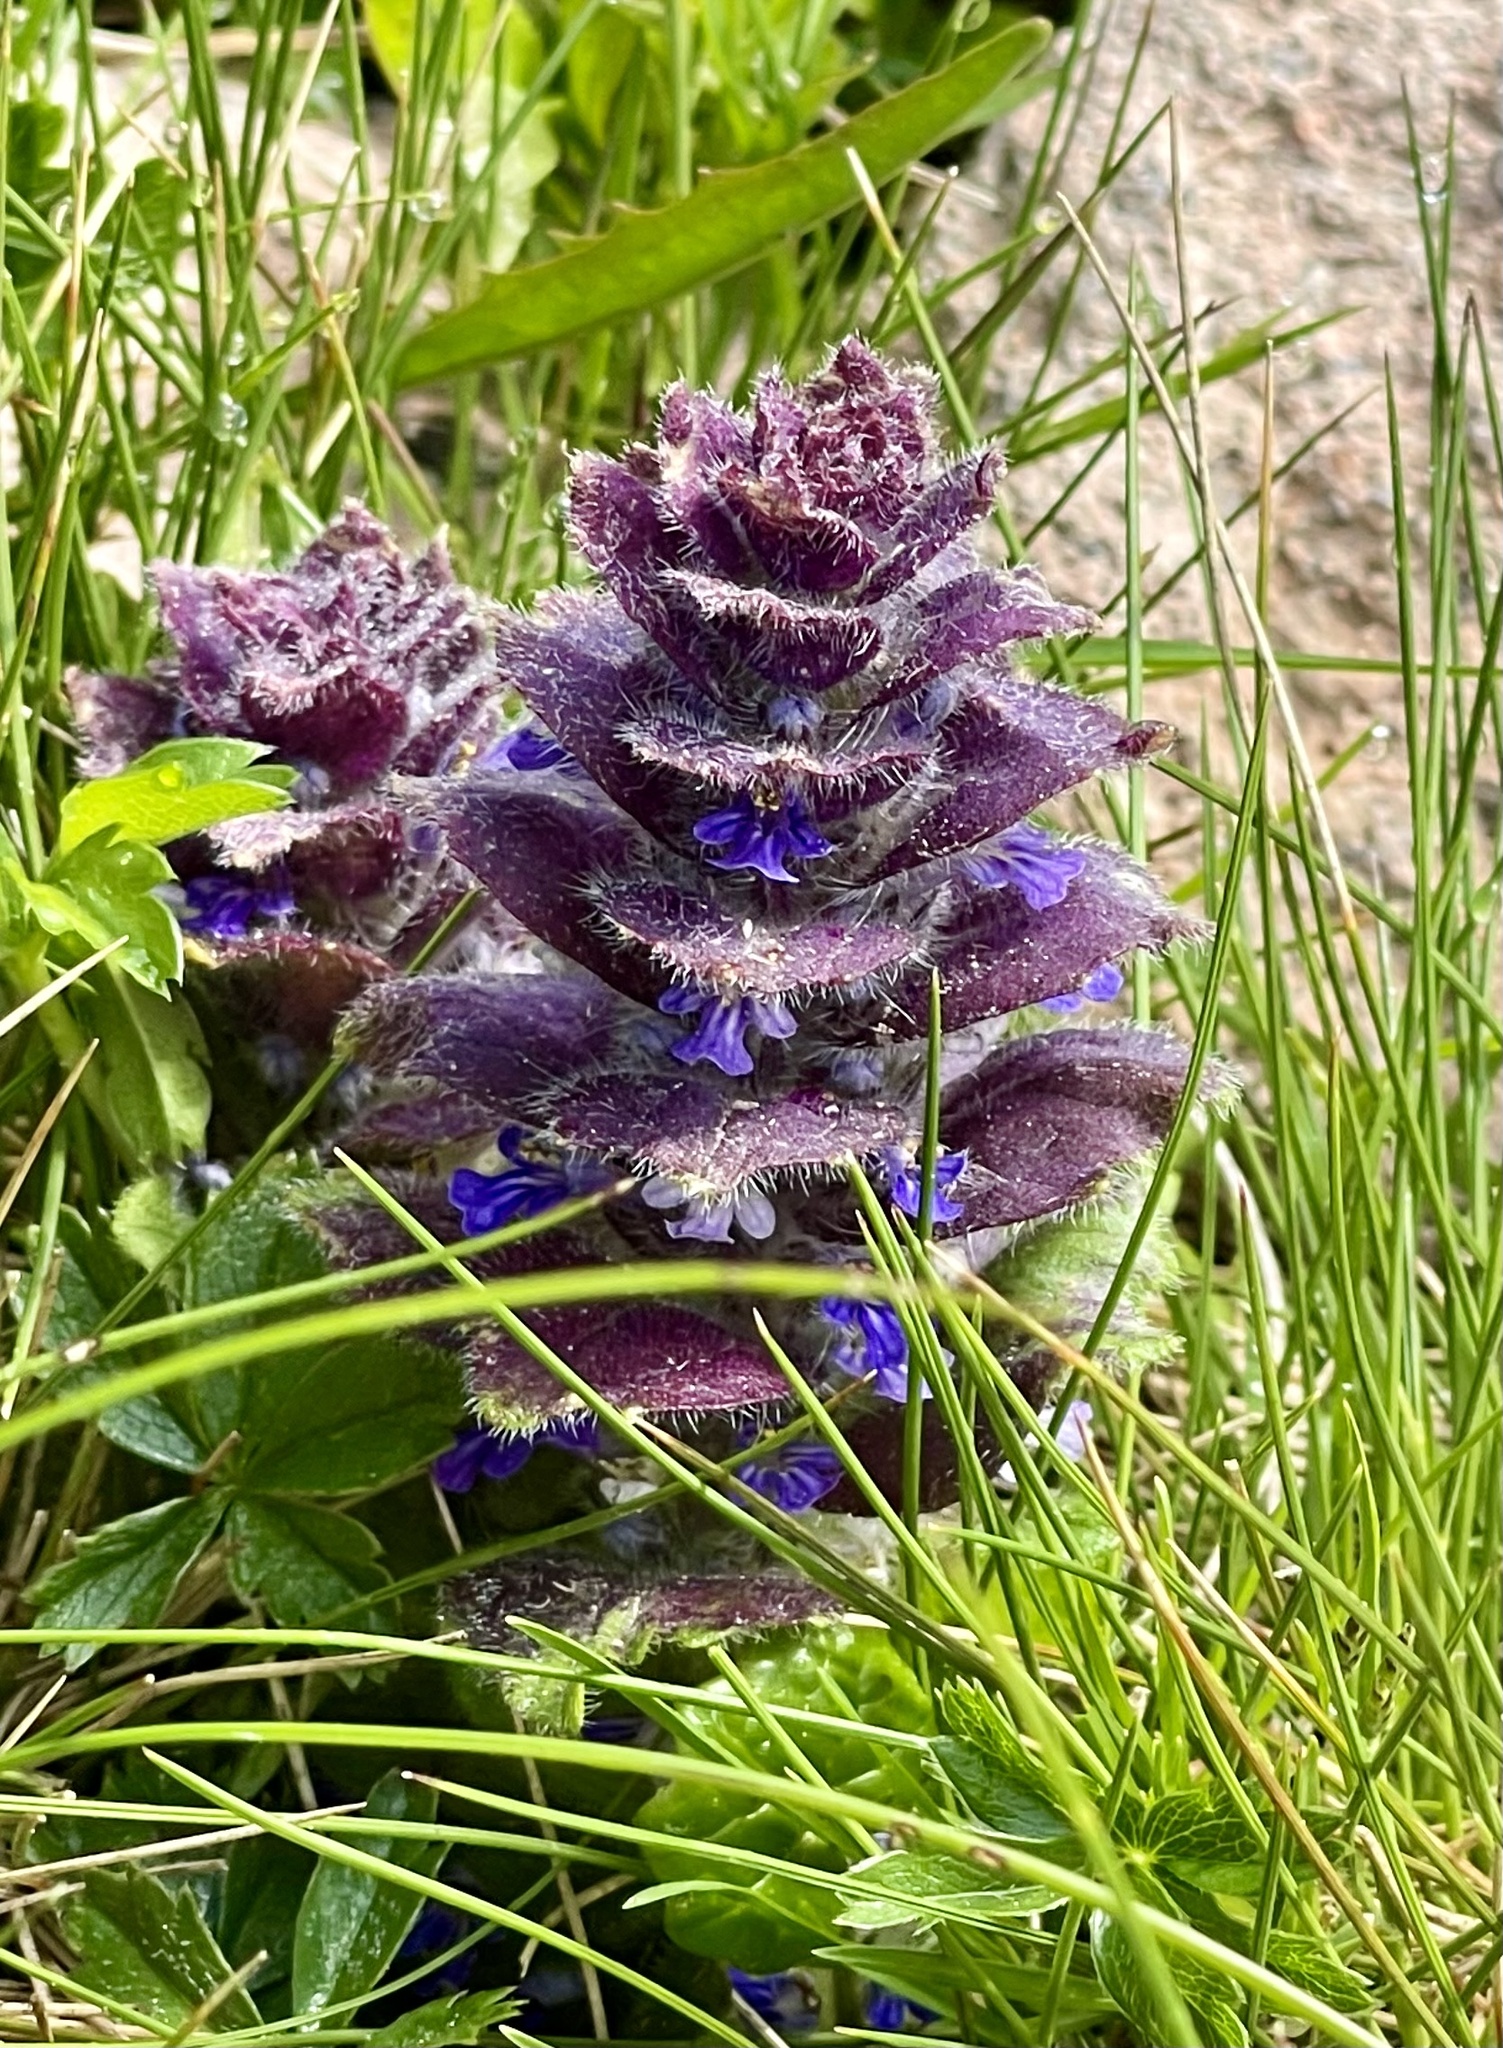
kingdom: Plantae
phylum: Tracheophyta
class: Magnoliopsida
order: Lamiales
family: Lamiaceae
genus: Ajuga
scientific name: Ajuga pyramidalis
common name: Pyramid bugle
